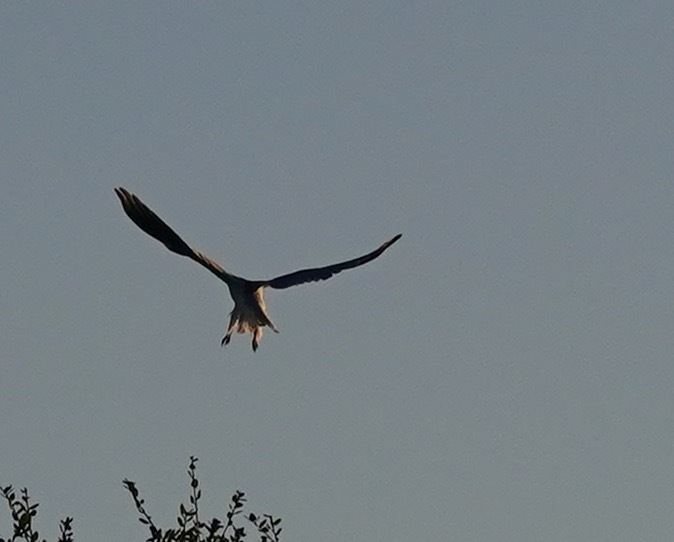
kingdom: Animalia
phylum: Chordata
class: Aves
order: Accipitriformes
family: Accipitridae
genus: Elanus
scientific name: Elanus leucurus
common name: White-tailed kite
